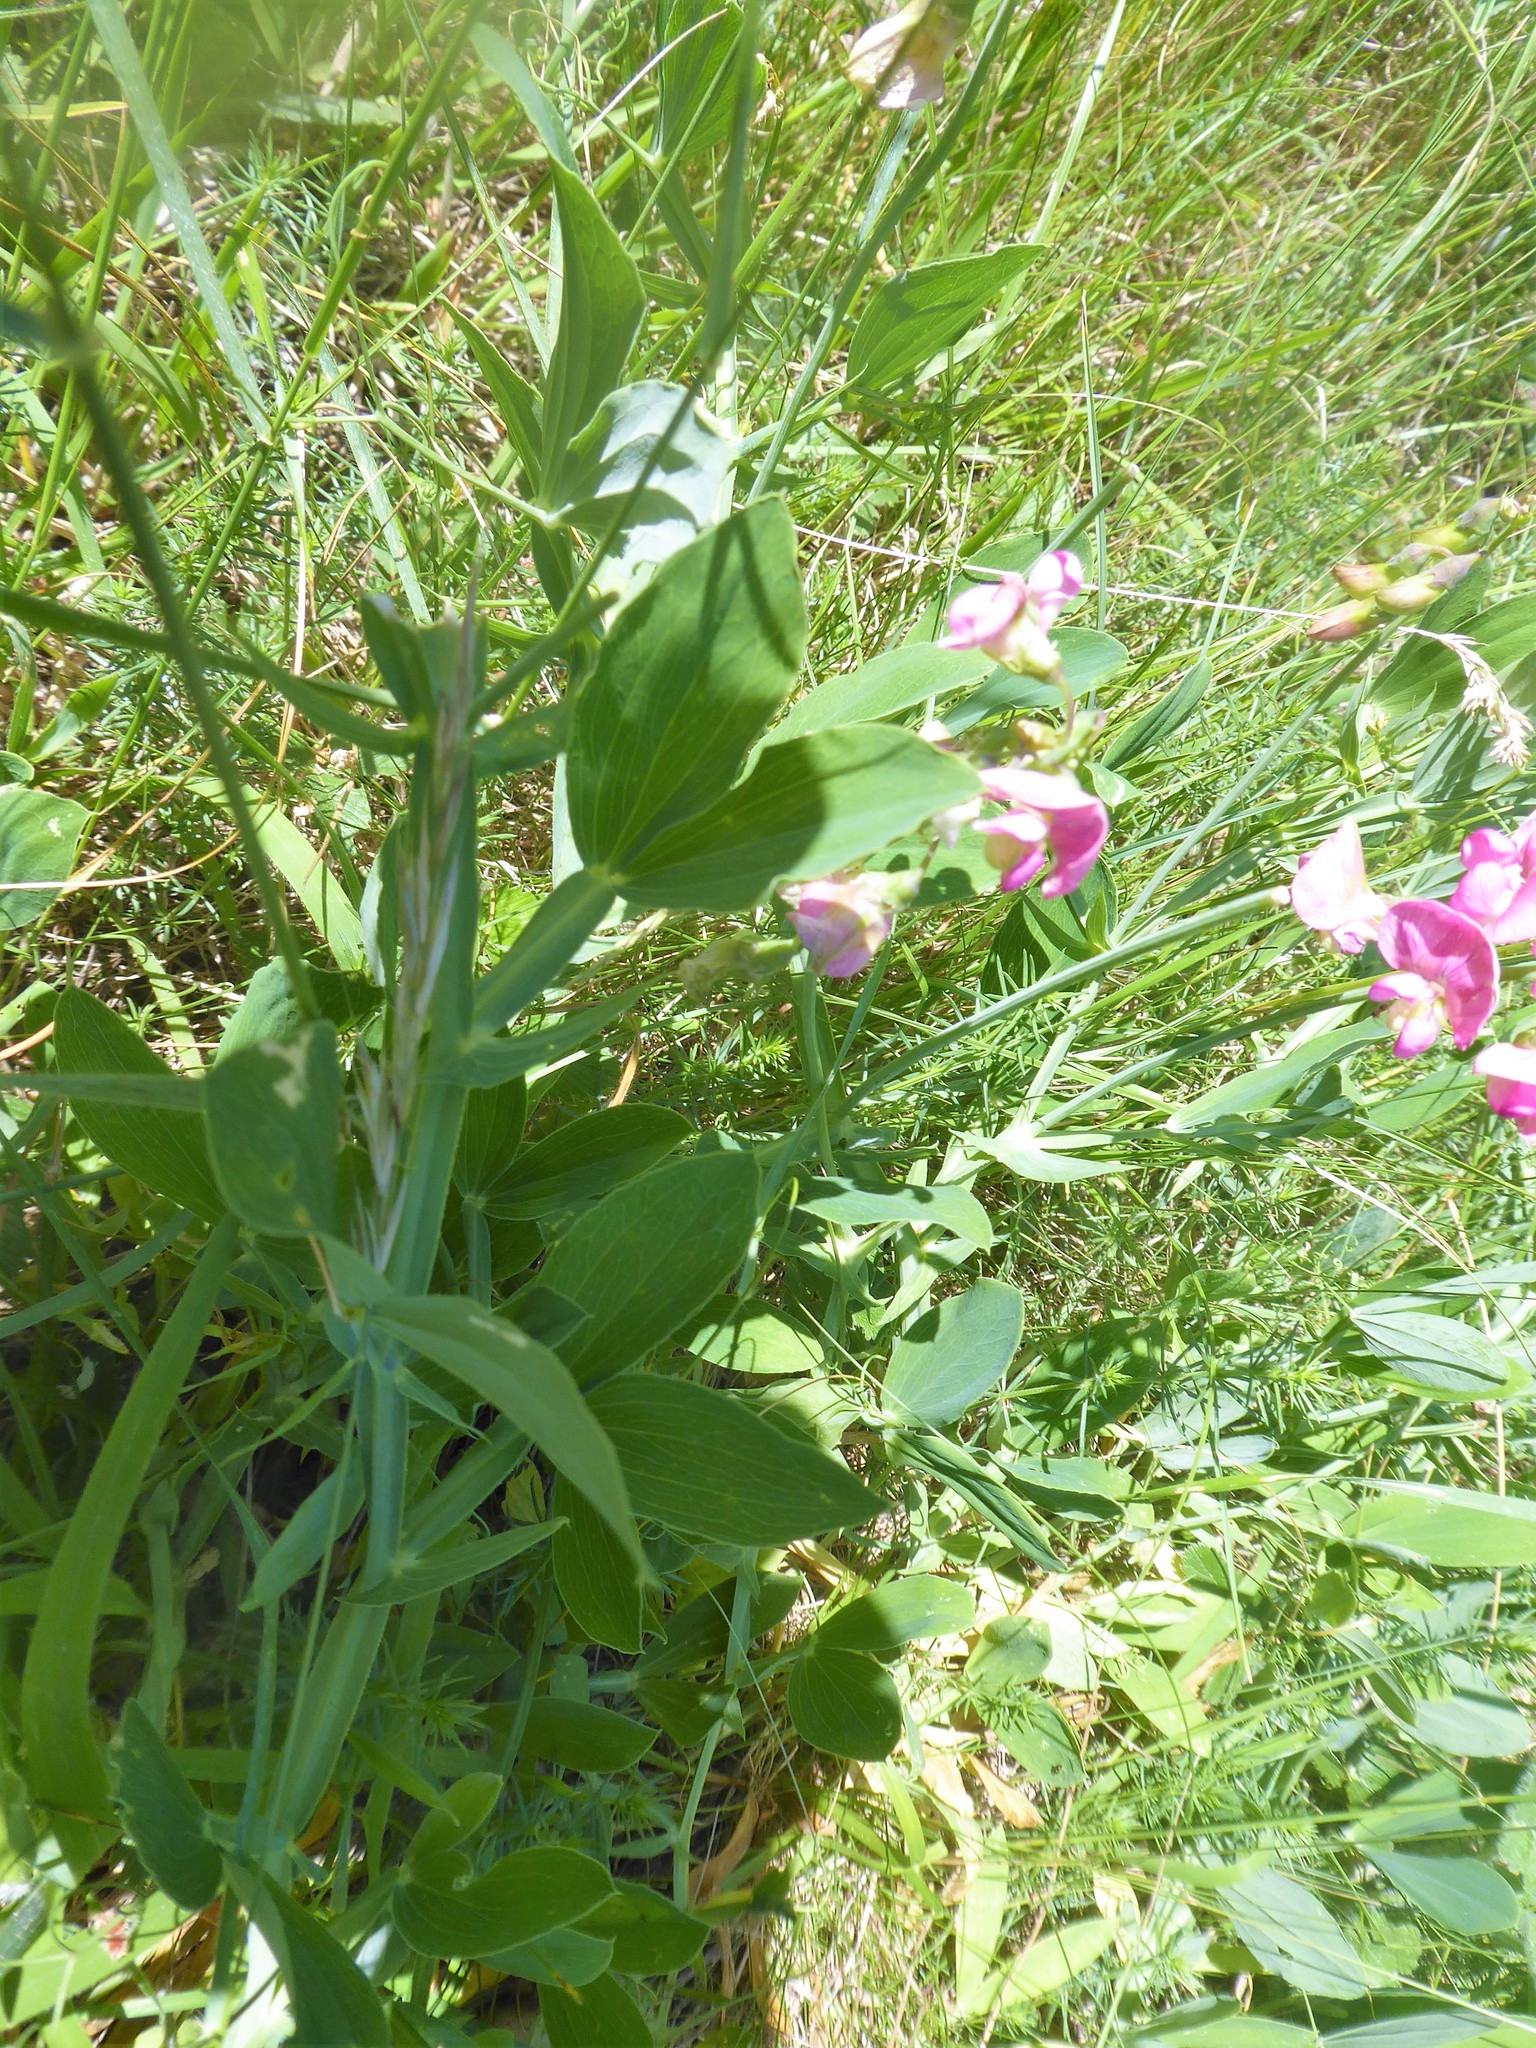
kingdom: Plantae
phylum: Tracheophyta
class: Magnoliopsida
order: Fabales
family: Fabaceae
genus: Lathyrus
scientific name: Lathyrus latifolius
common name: Perennial pea
